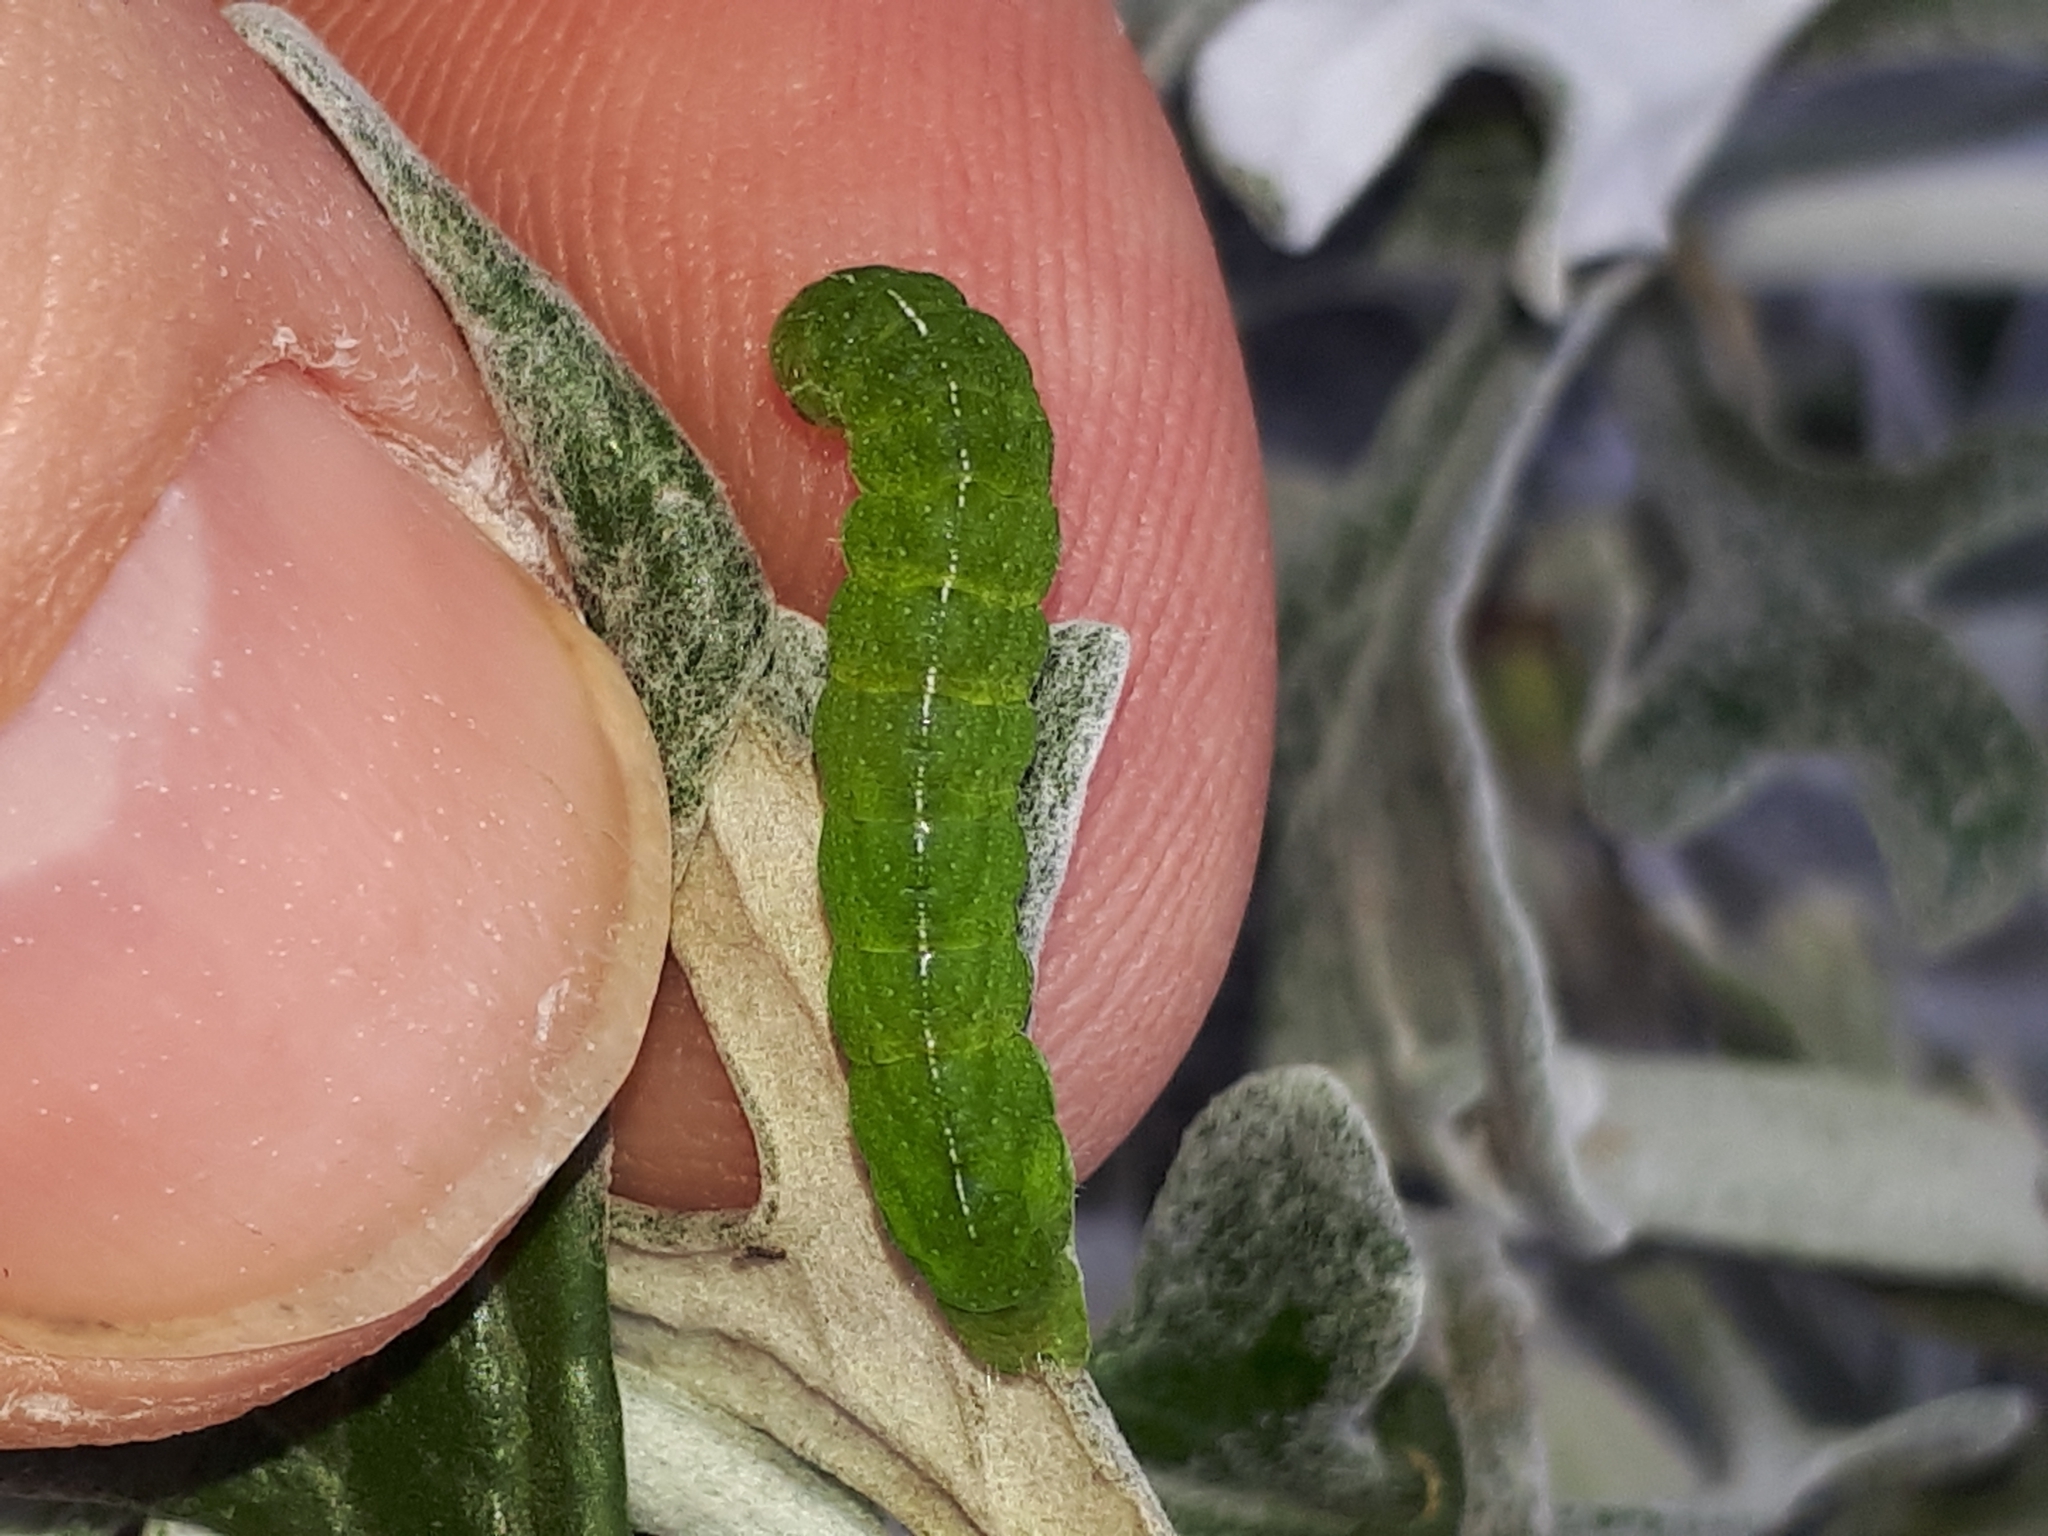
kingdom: Animalia
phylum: Arthropoda
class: Insecta
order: Lepidoptera
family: Noctuidae
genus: Phlogophora
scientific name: Phlogophora meticulosa
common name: Angle shades
